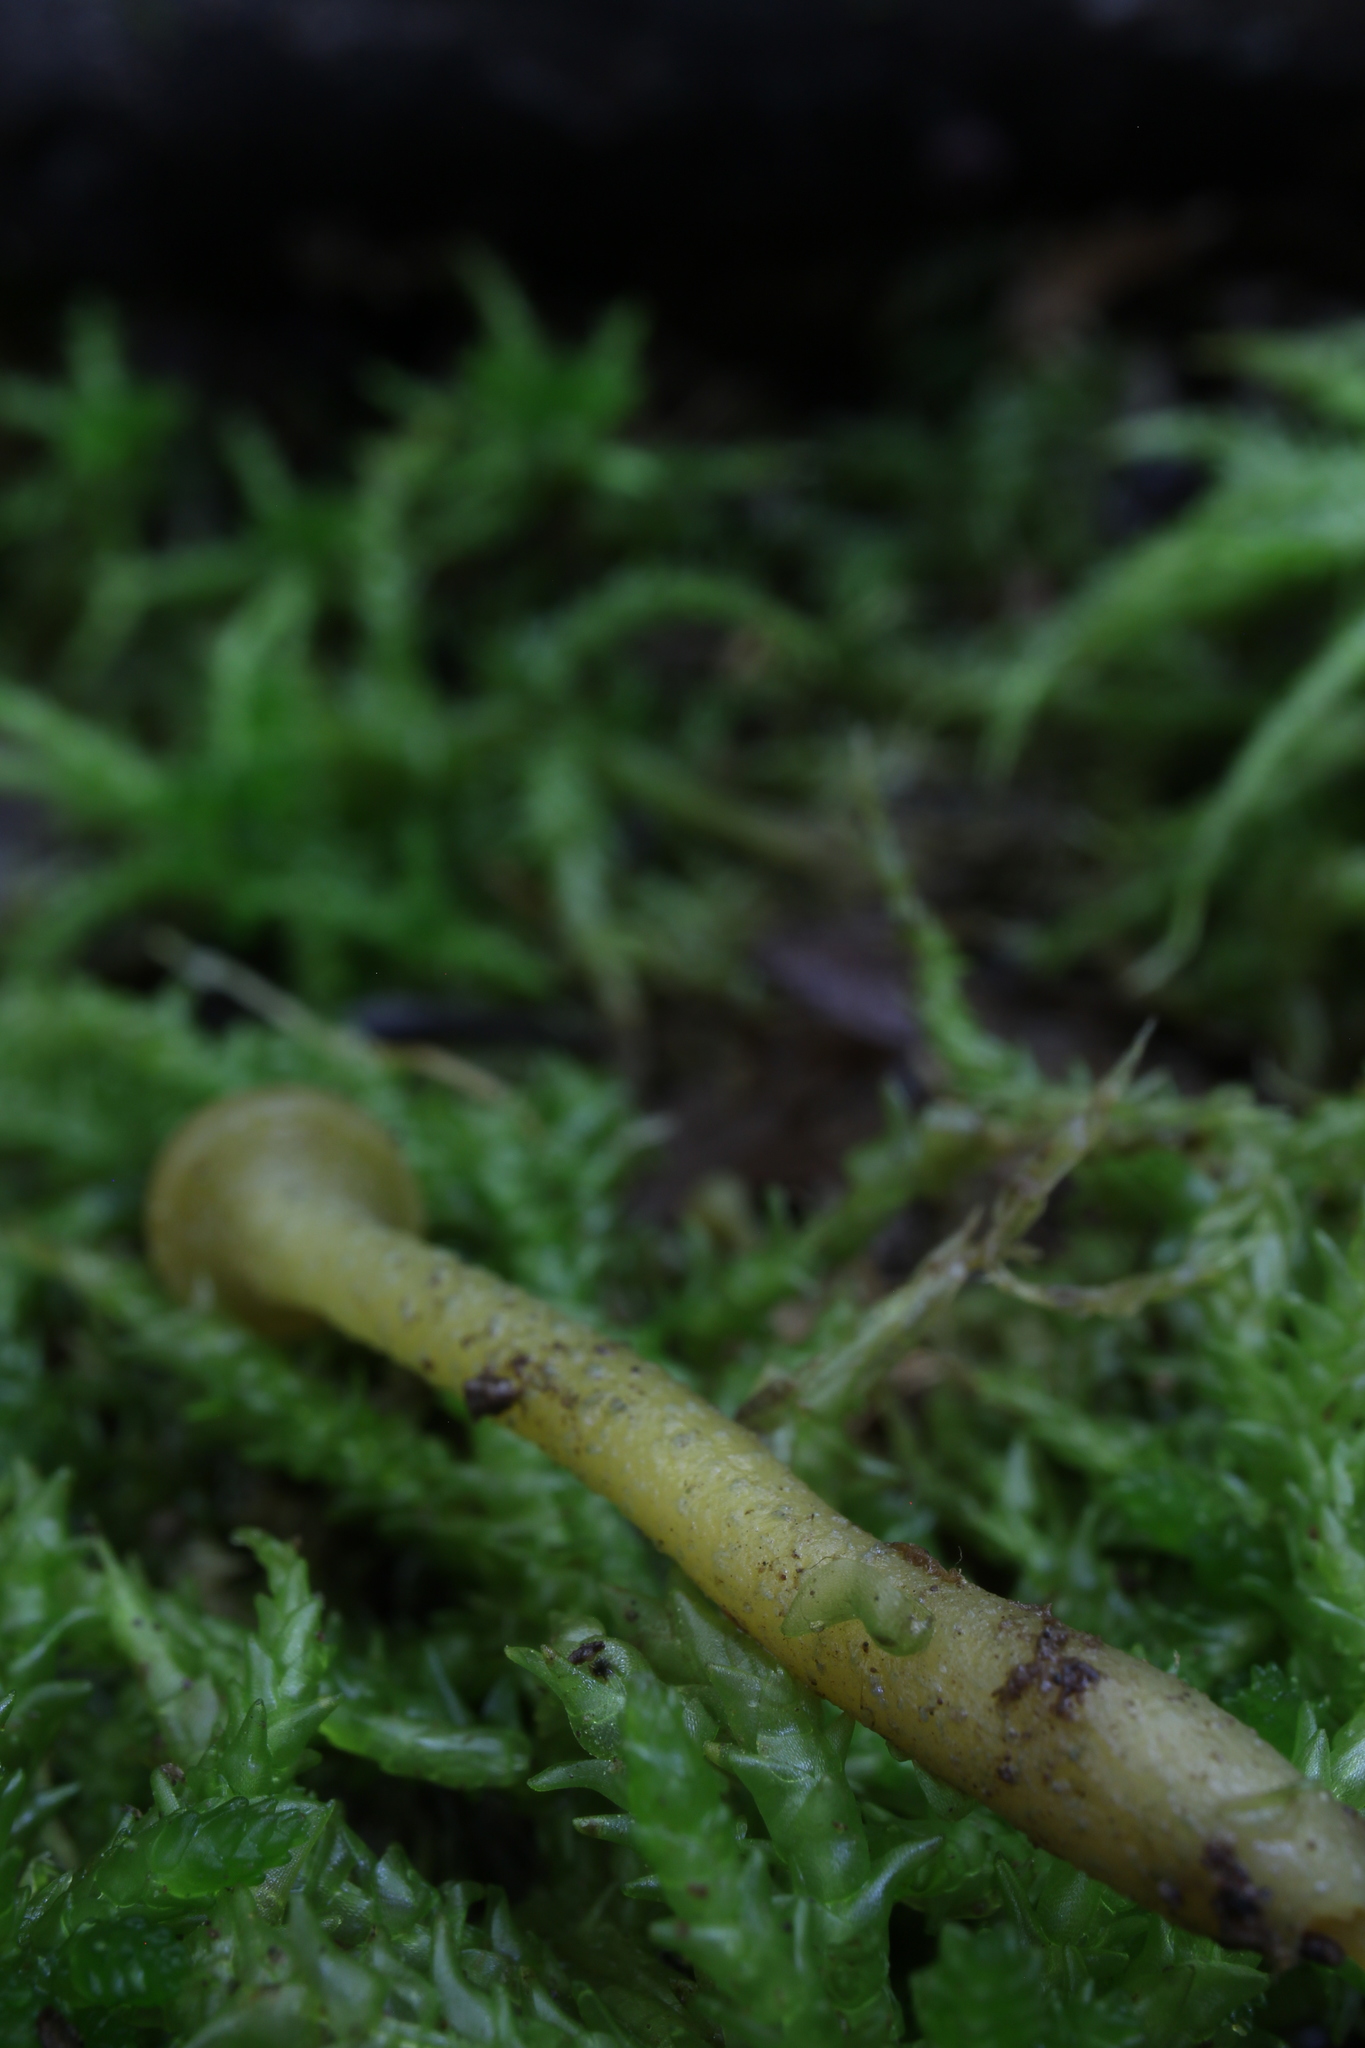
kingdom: Fungi
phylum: Ascomycota
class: Leotiomycetes
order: Leotiales
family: Leotiaceae
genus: Leotia
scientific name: Leotia lubrica
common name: Jellybaby
